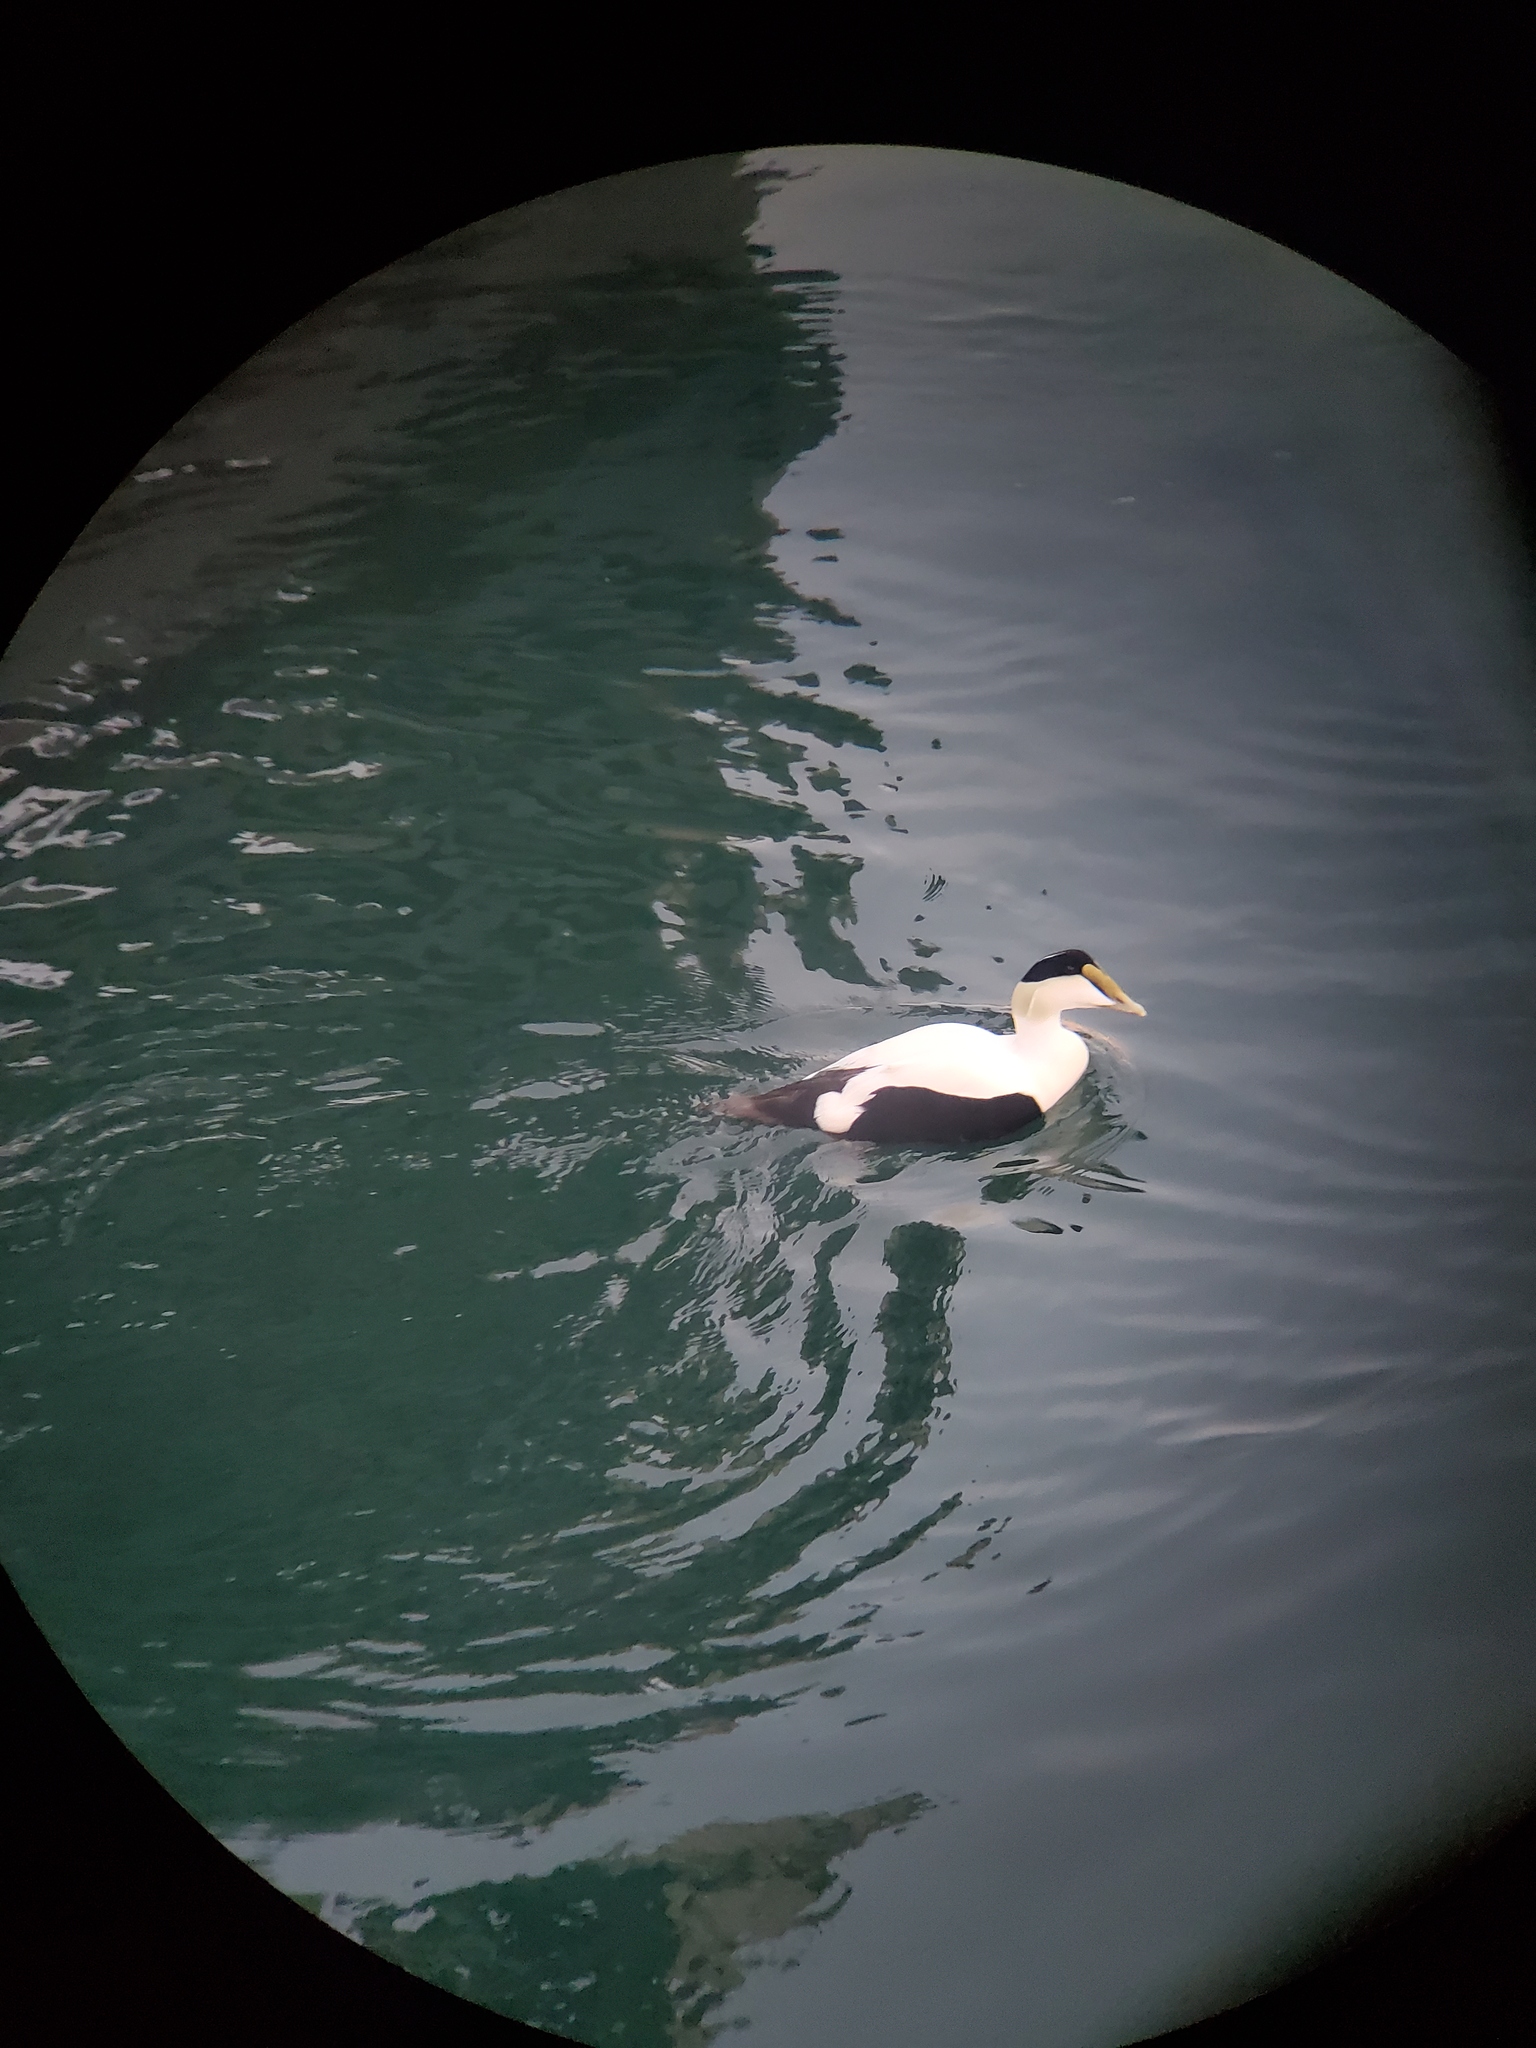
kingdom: Animalia
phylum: Chordata
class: Aves
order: Anseriformes
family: Anatidae
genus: Somateria
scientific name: Somateria mollissima
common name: Common eider
